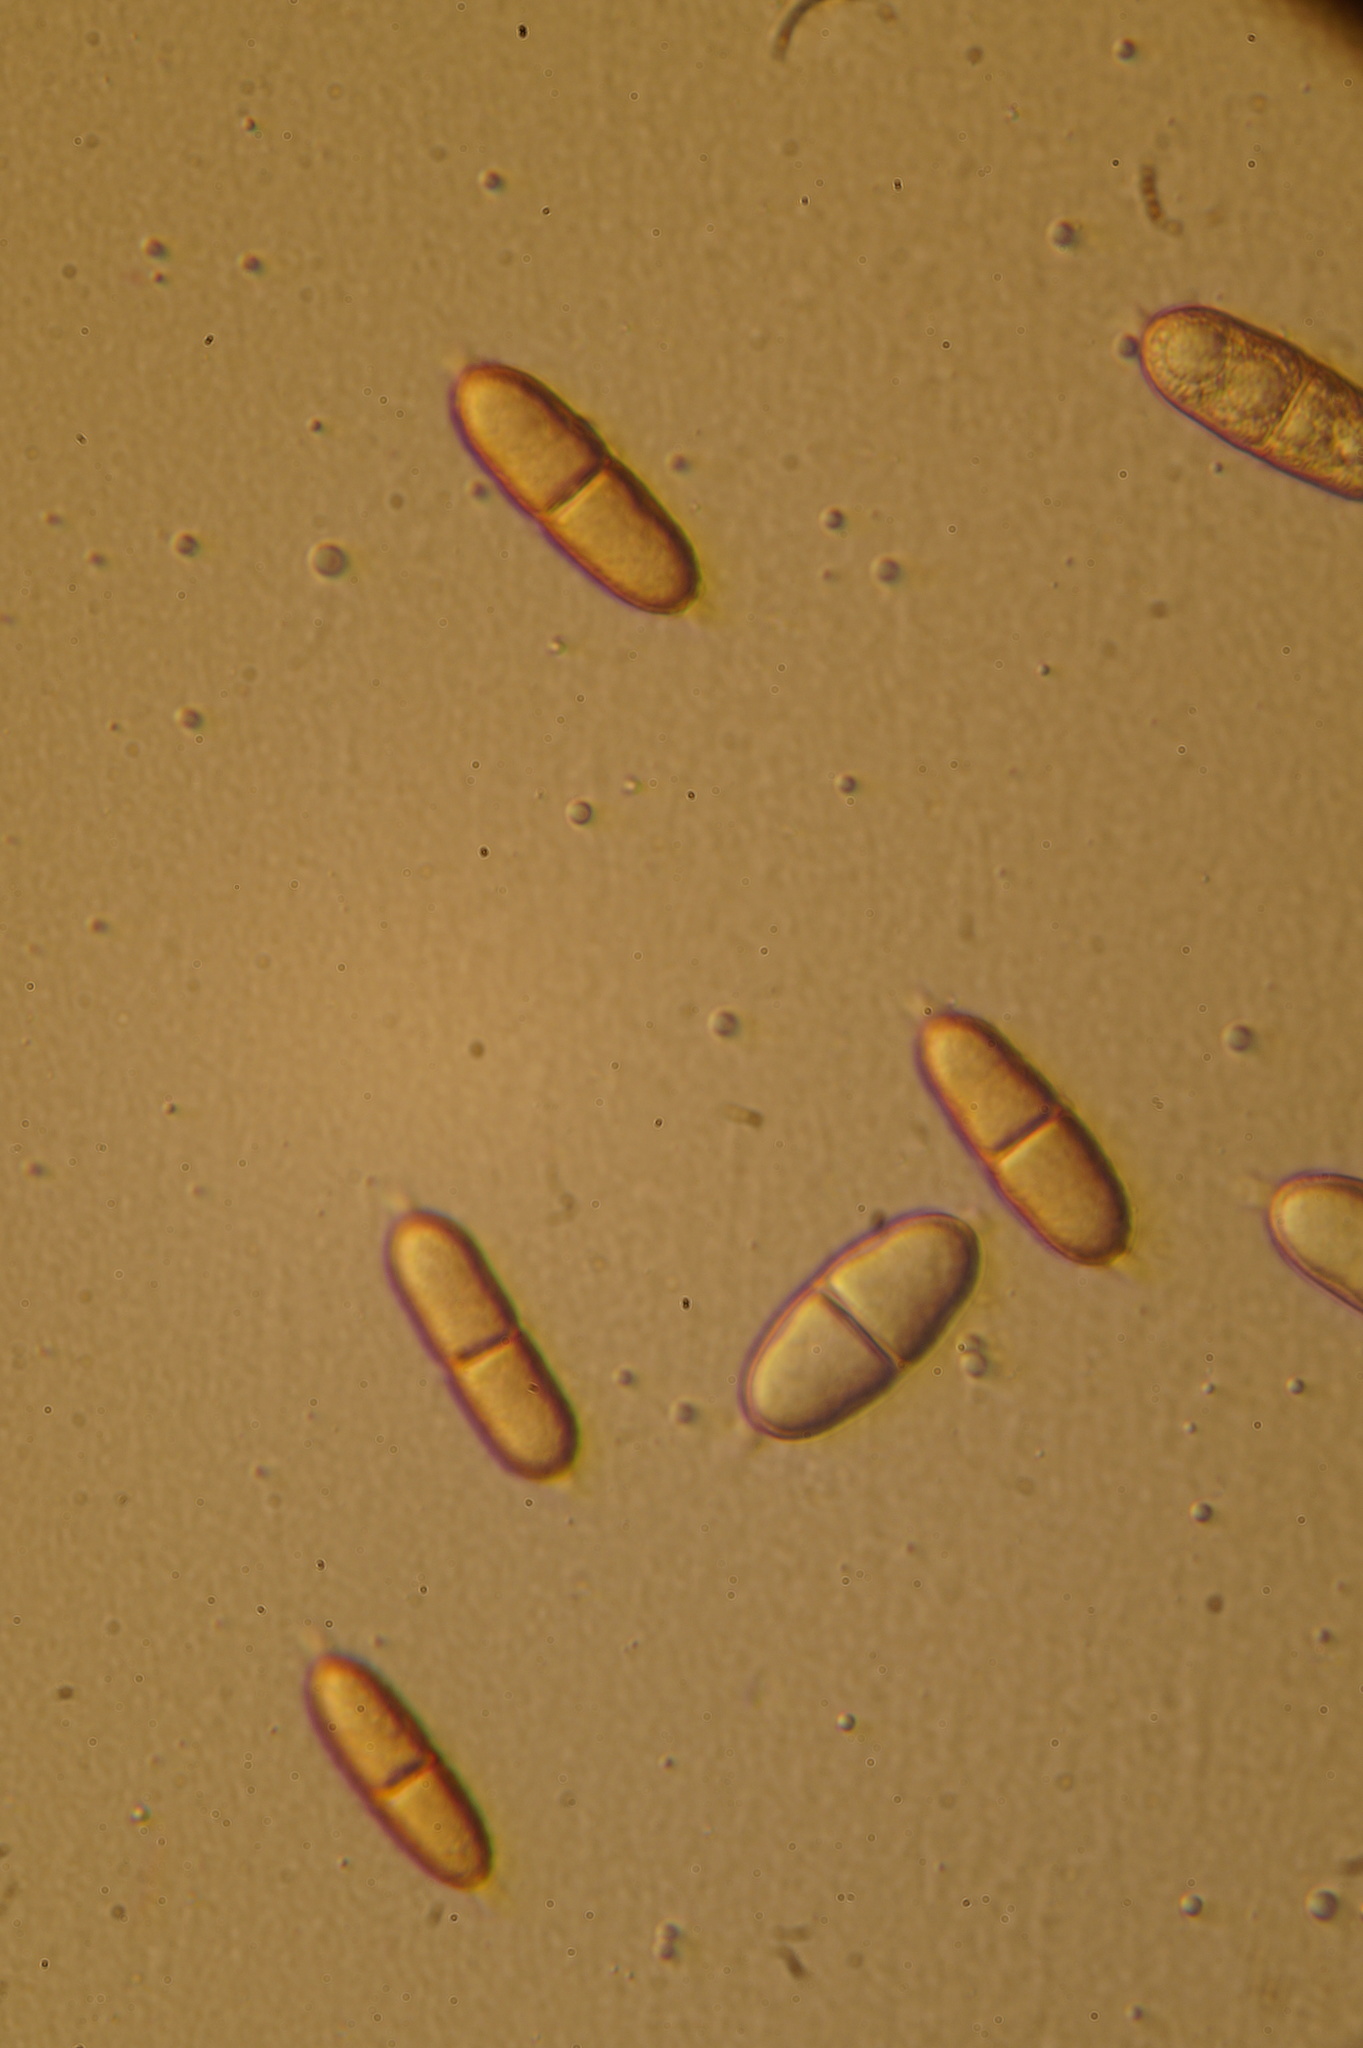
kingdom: Fungi
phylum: Ascomycota
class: Sordariomycetes
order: Diaporthales
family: Gnomoniaceae
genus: Alnecium
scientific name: Alnecium auctum
